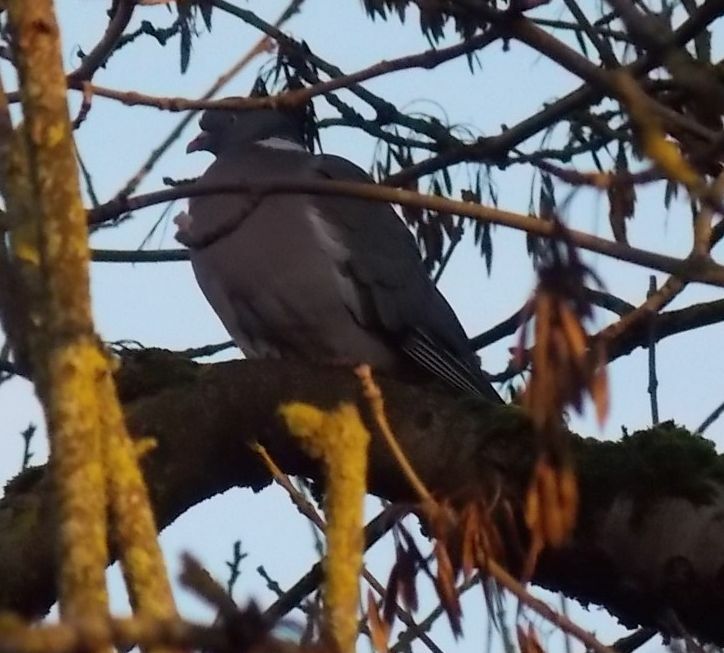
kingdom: Animalia
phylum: Chordata
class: Aves
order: Columbiformes
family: Columbidae
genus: Columba
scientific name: Columba palumbus
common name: Common wood pigeon
